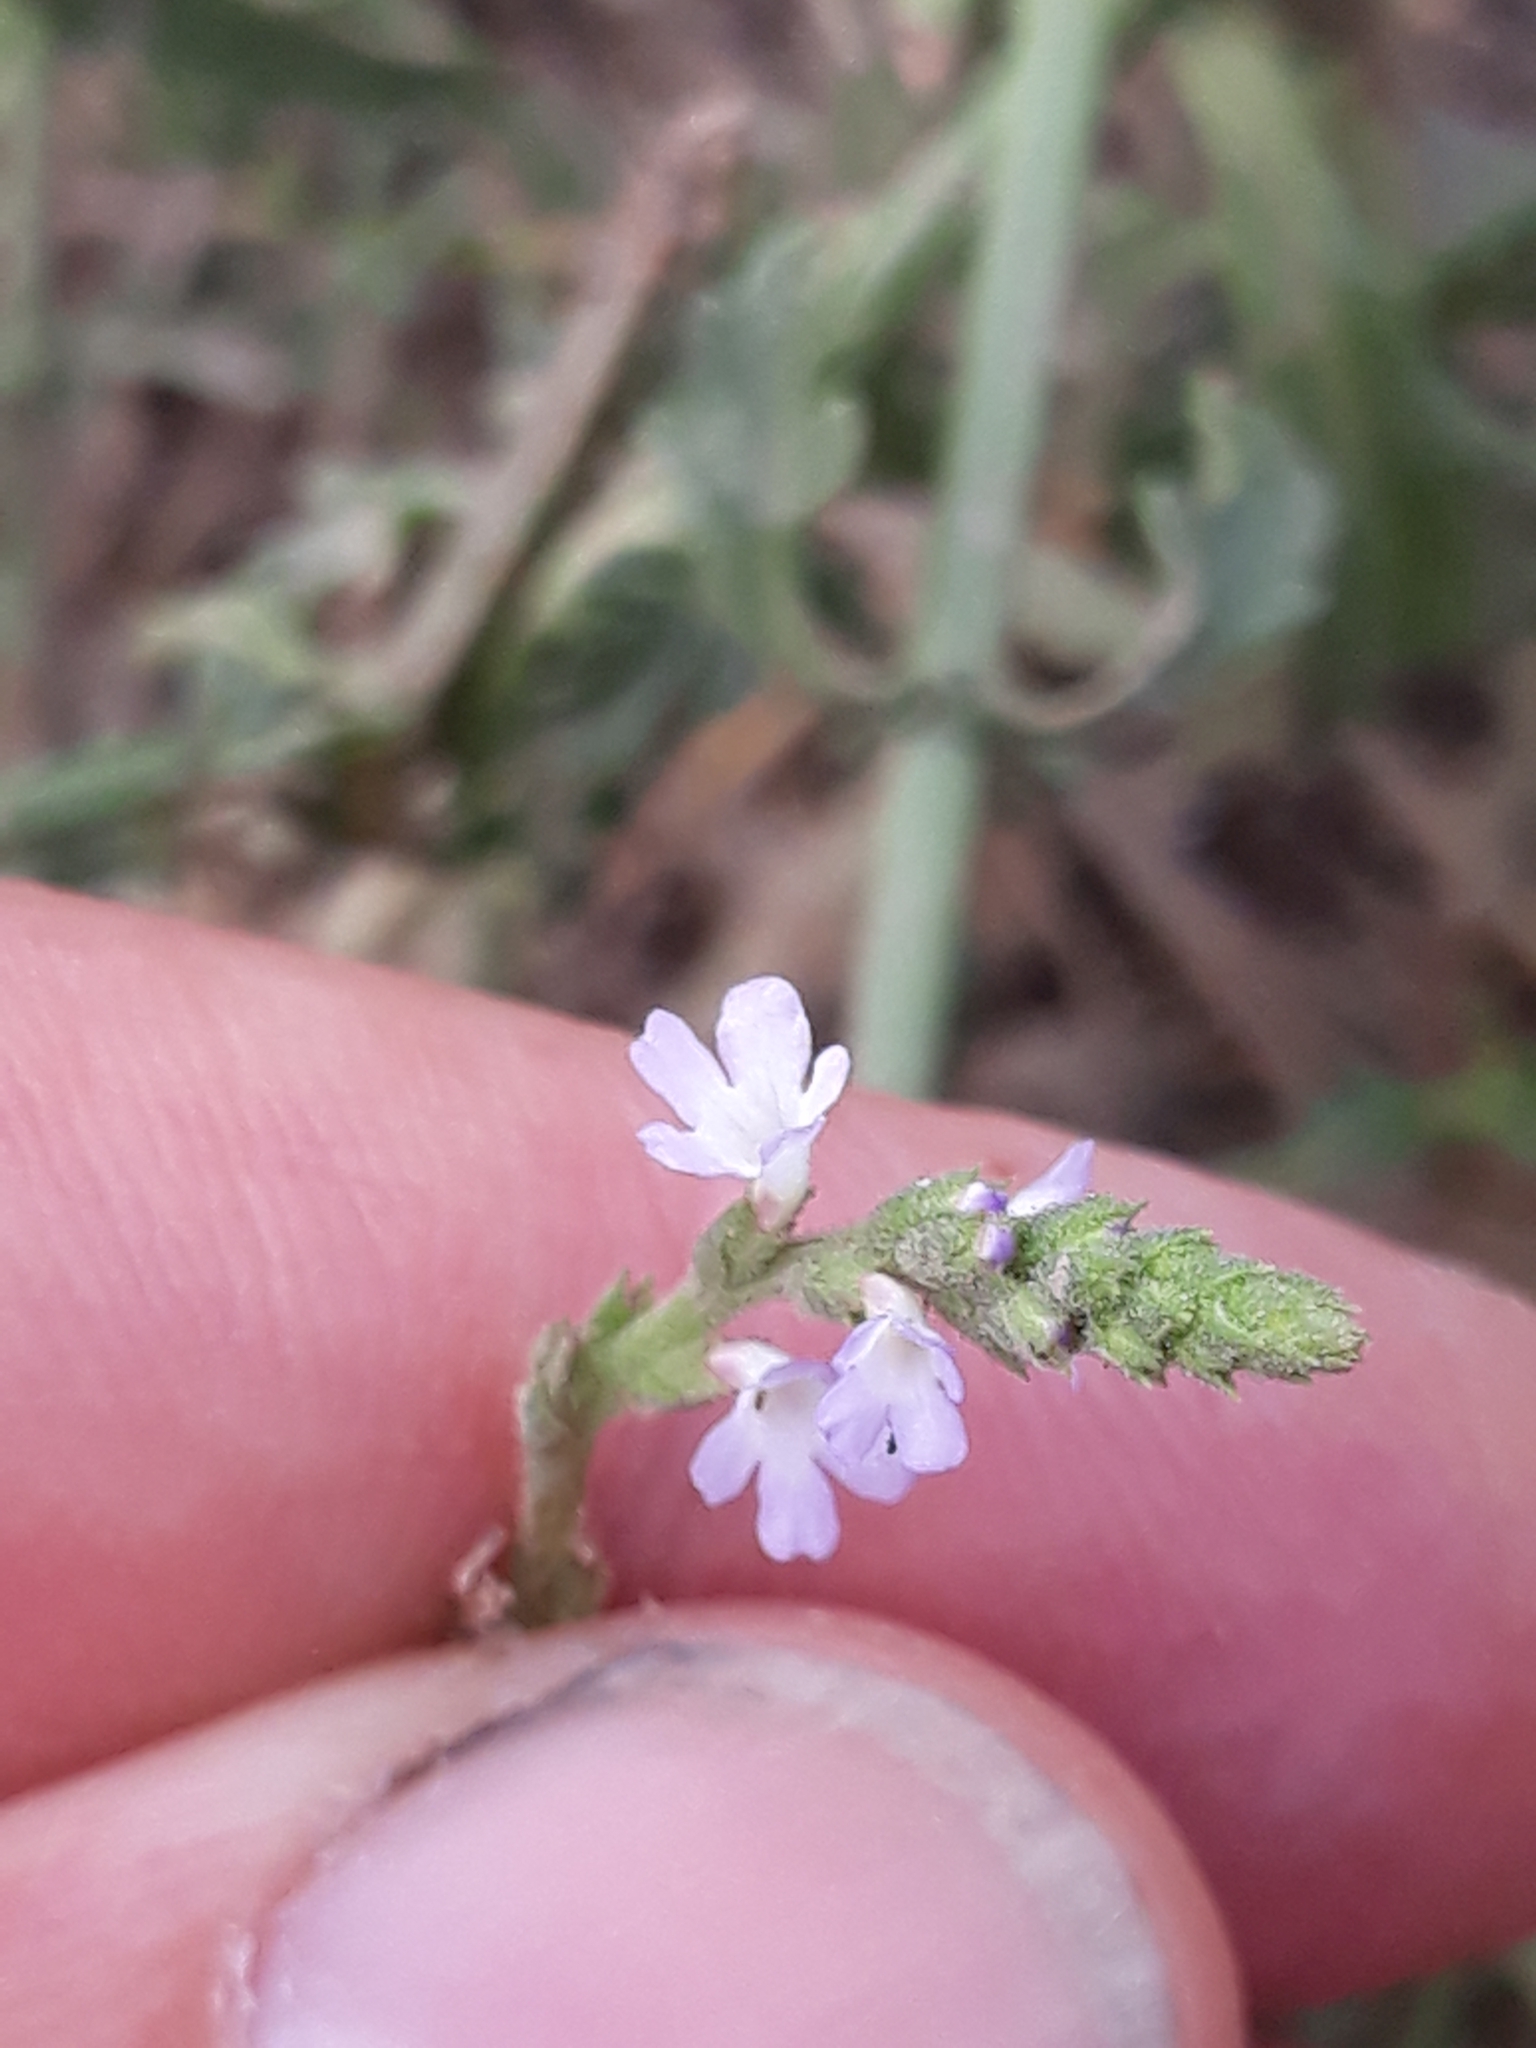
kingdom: Plantae
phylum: Tracheophyta
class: Magnoliopsida
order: Lamiales
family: Verbenaceae
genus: Verbena
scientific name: Verbena officinalis
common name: Vervain
